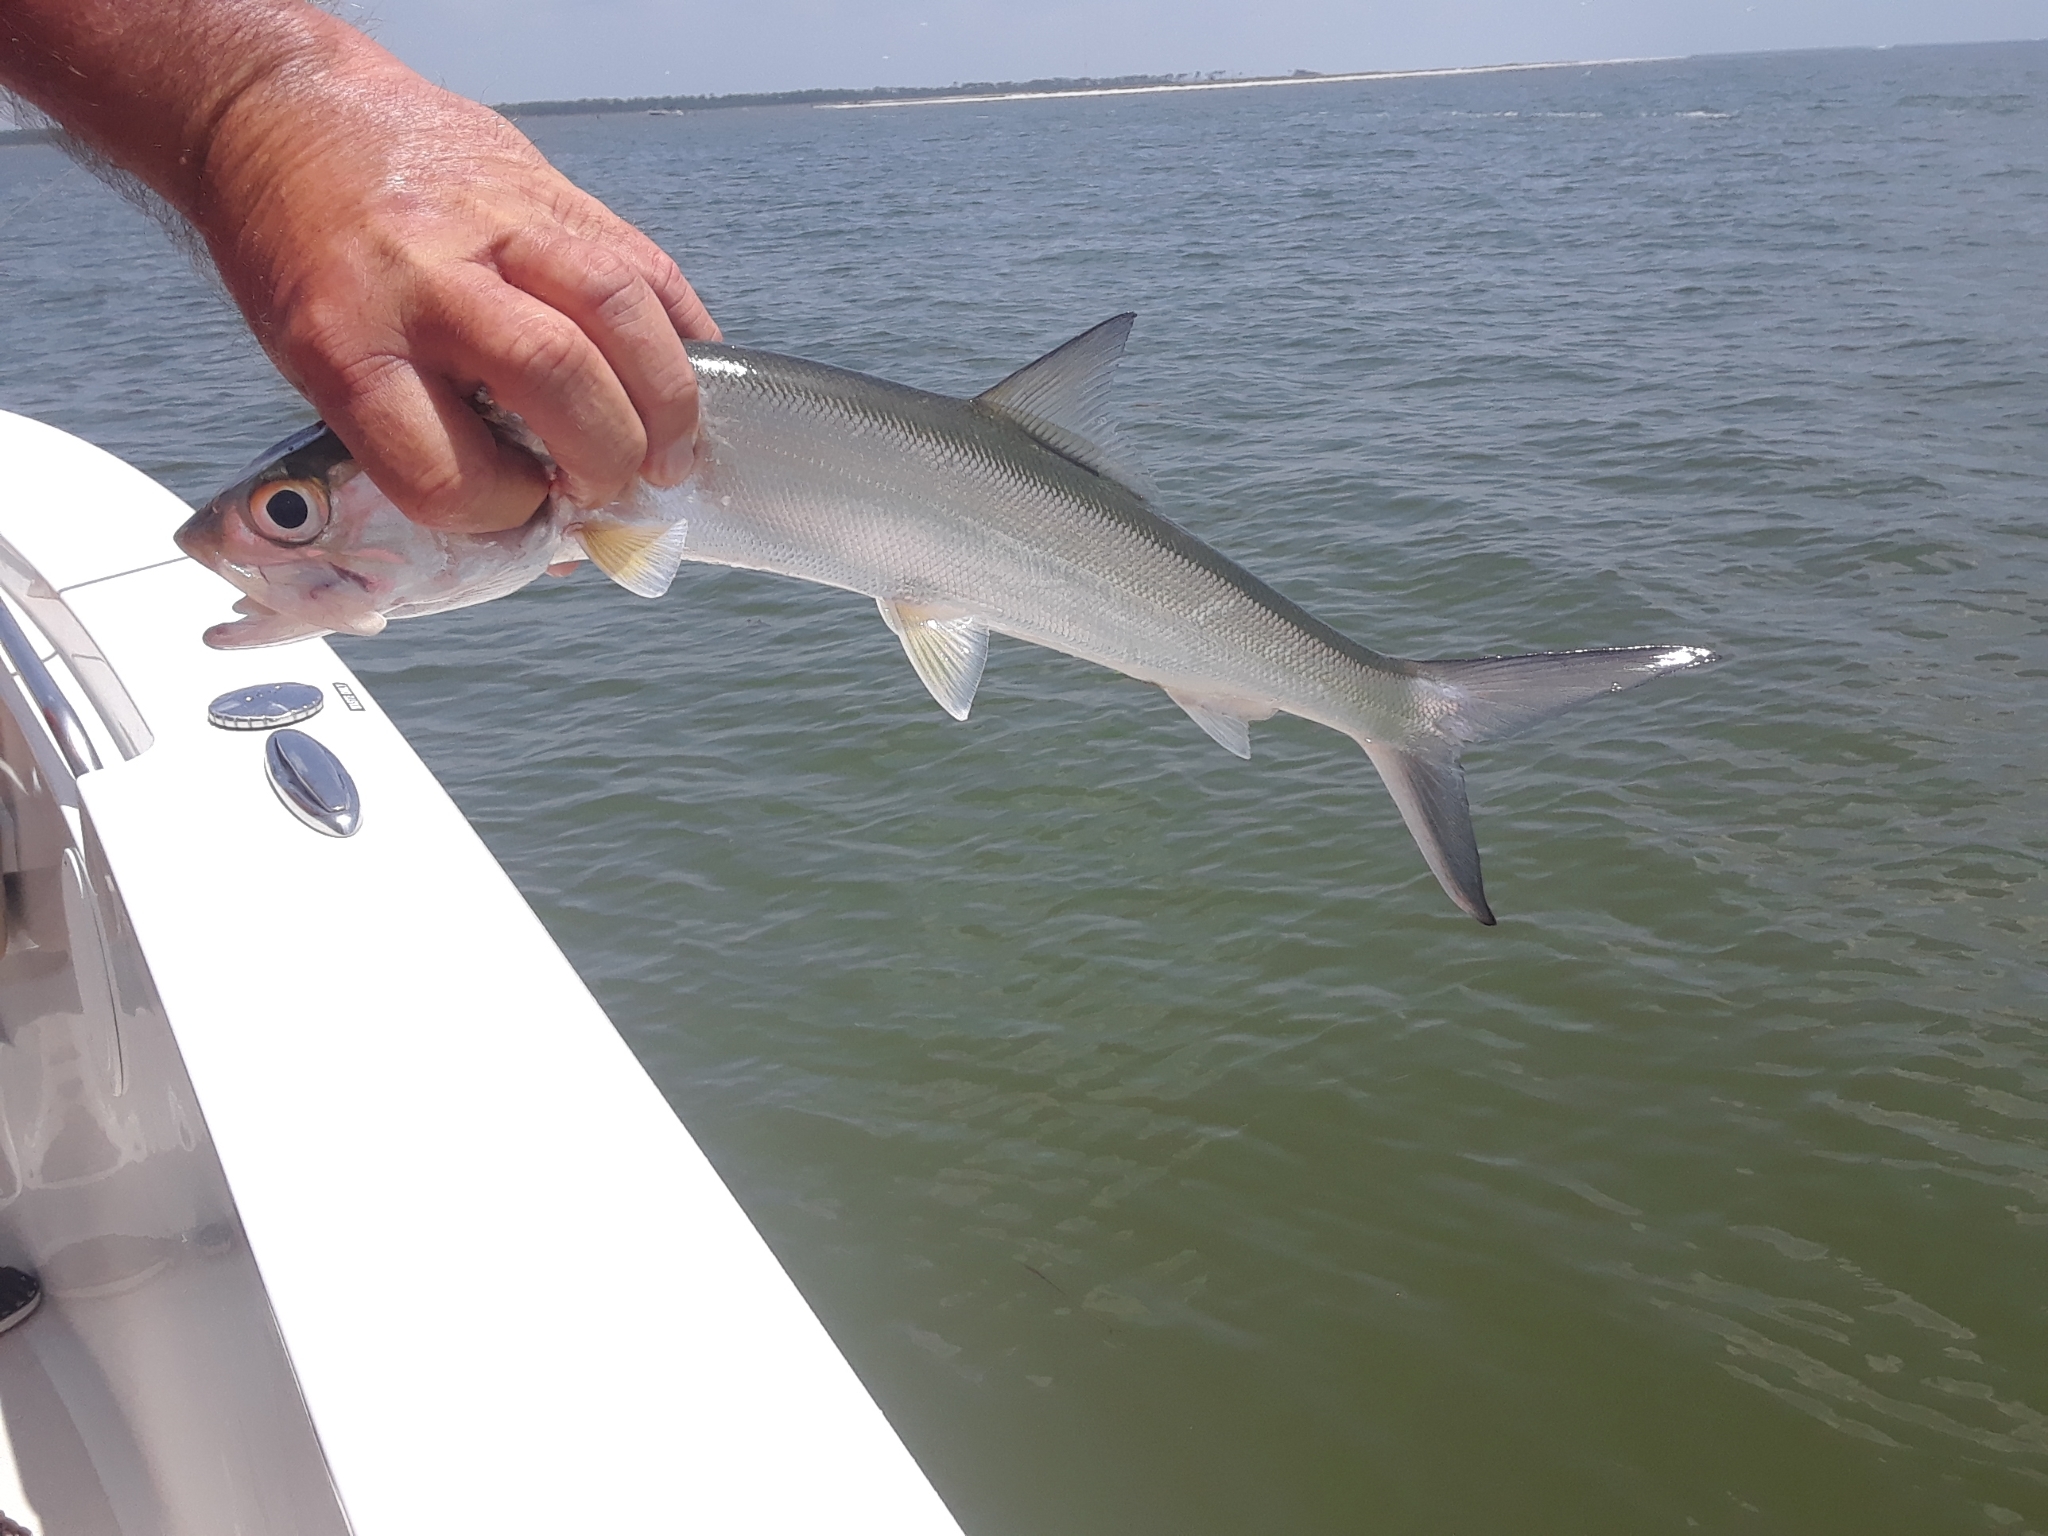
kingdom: Animalia
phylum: Chordata
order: Elopiformes
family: Elopidae
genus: Elops
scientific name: Elops saurus
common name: Ladyfish
